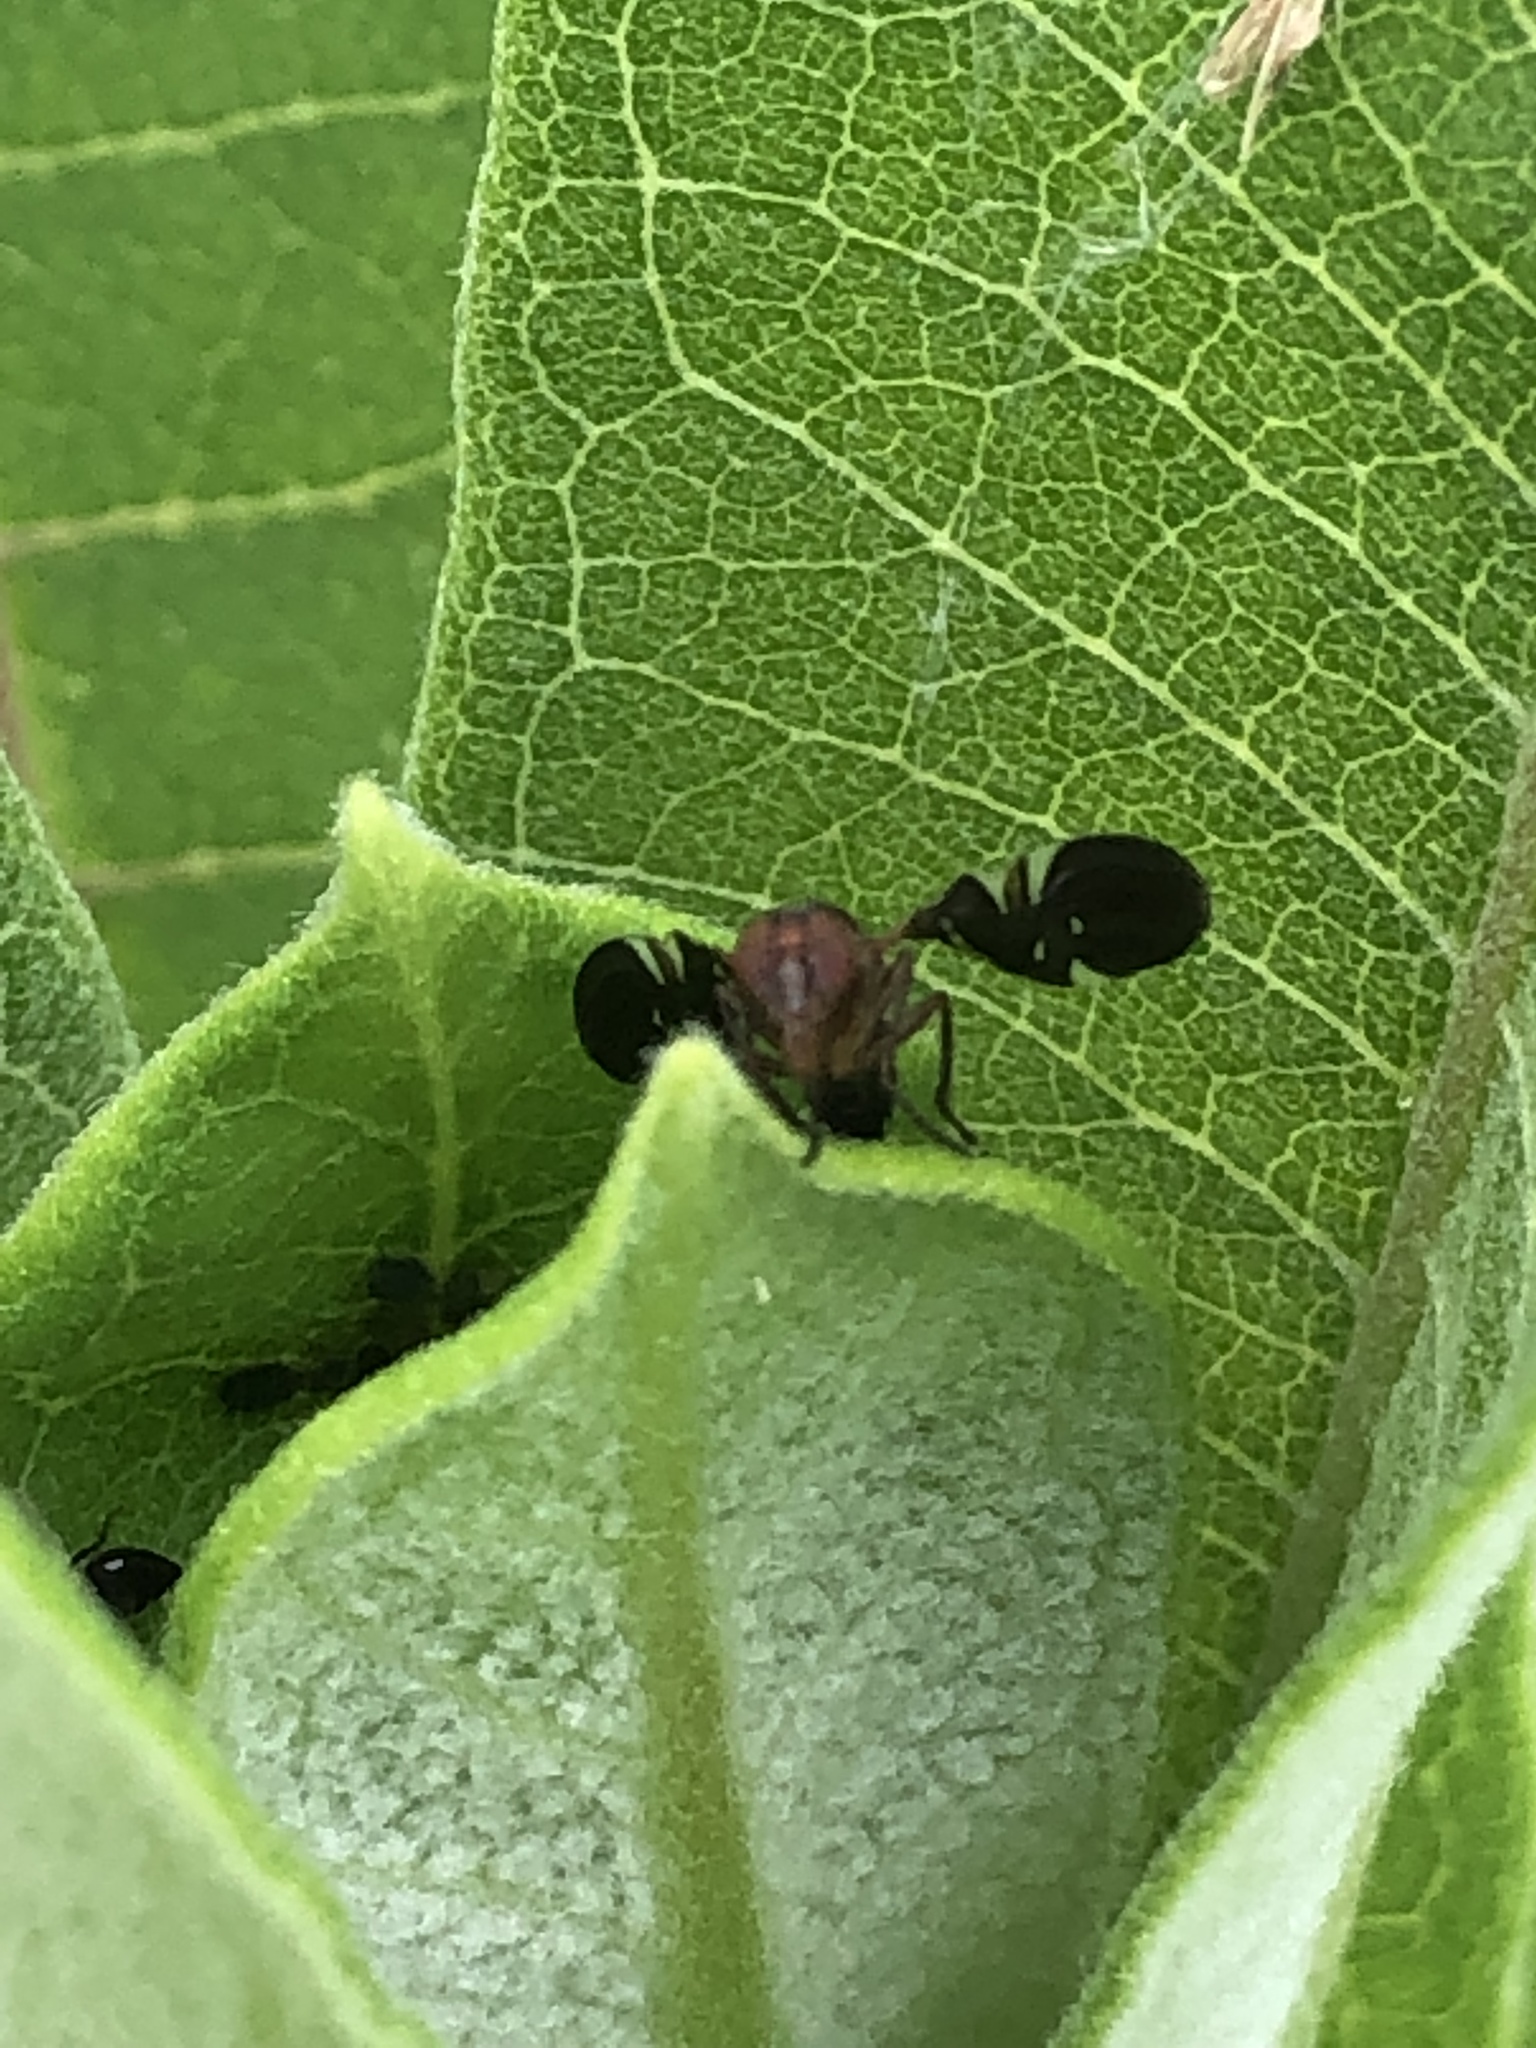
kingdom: Animalia
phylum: Arthropoda
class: Insecta
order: Diptera
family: Ulidiidae
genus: Delphinia
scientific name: Delphinia picta
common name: Common picture-winged fly
